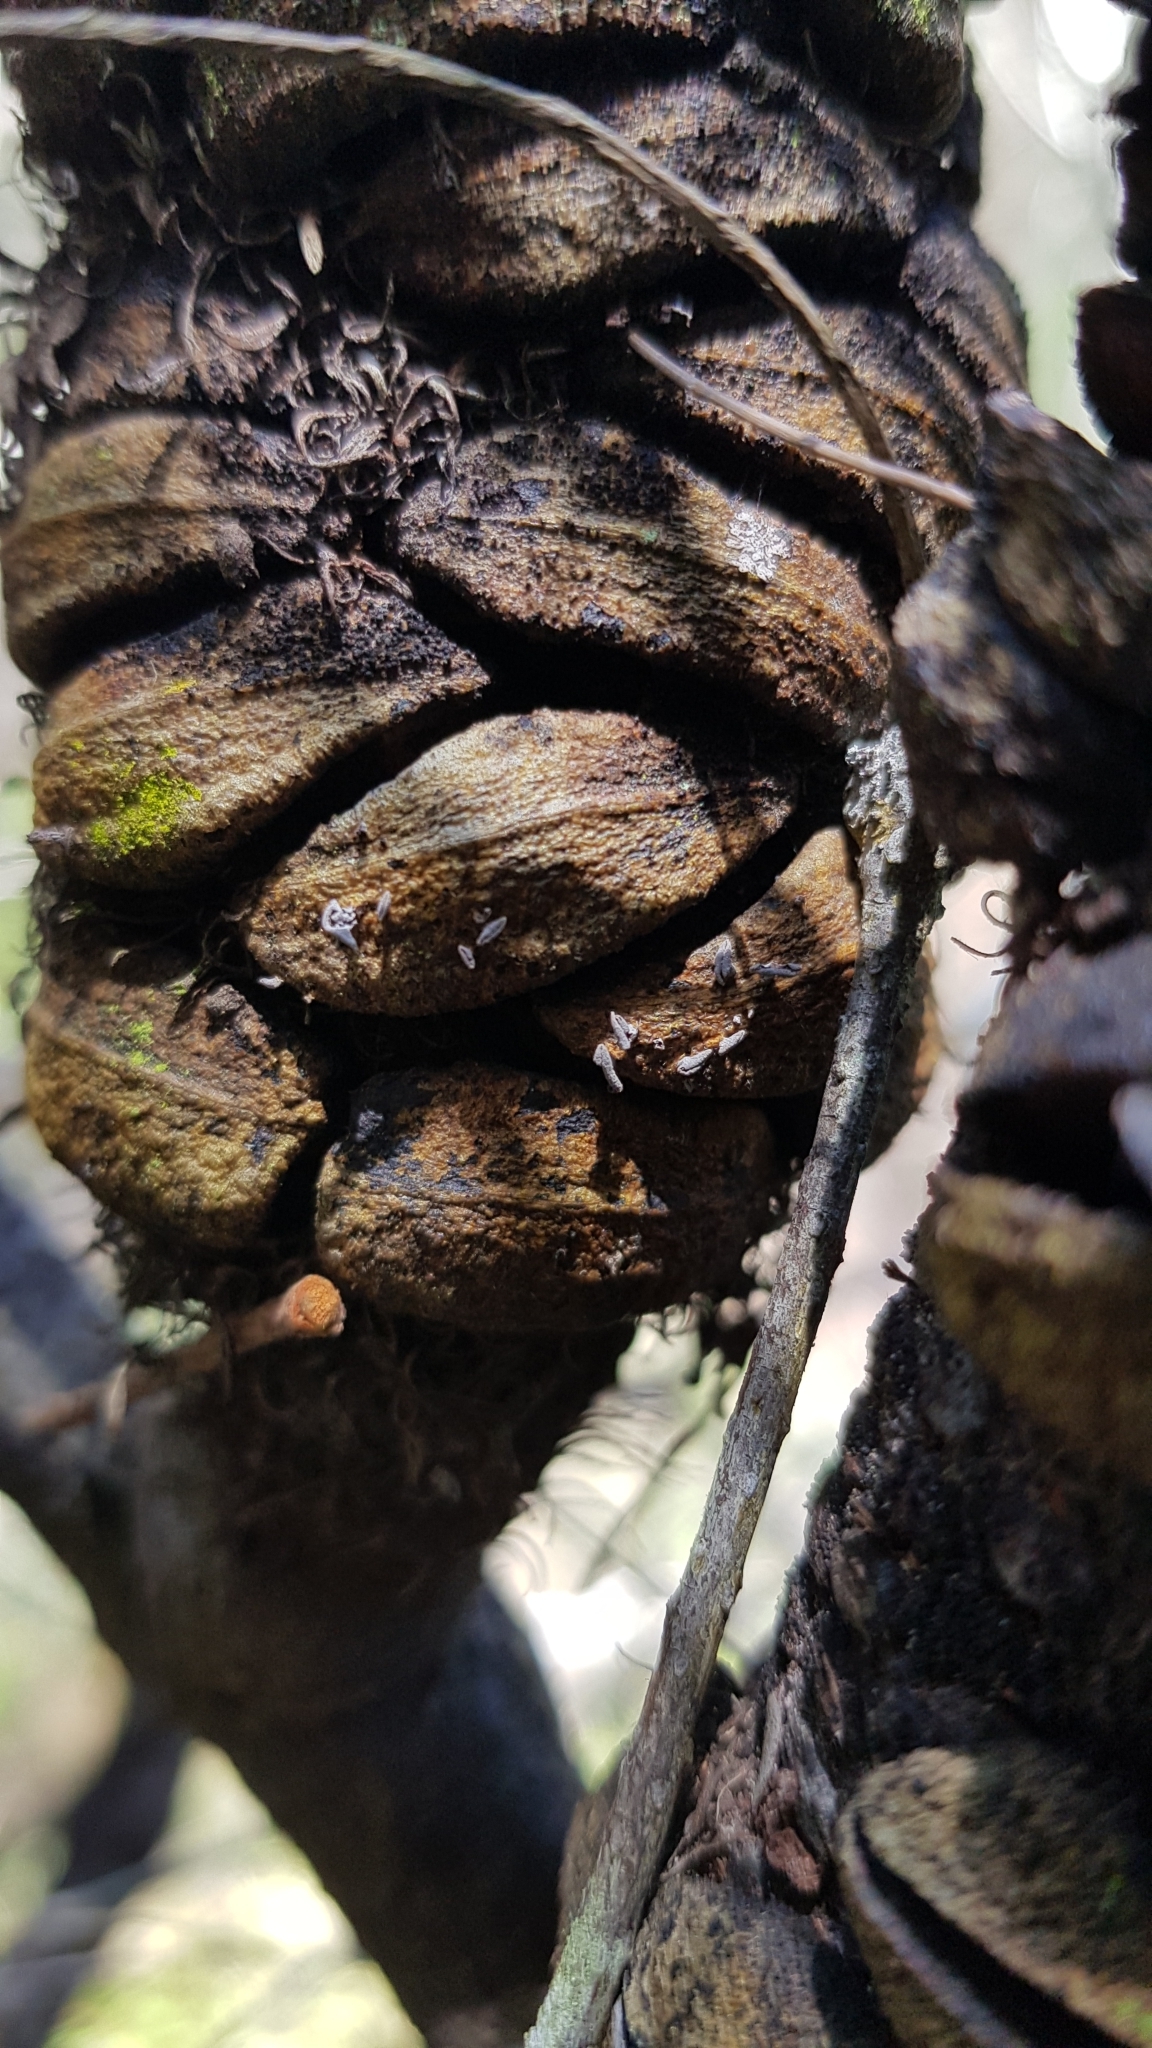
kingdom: Fungi
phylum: Ascomycota
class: Leotiomycetes
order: Helotiales
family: Helotiaceae
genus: Banksiamyces
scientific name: Banksiamyces toomansis
